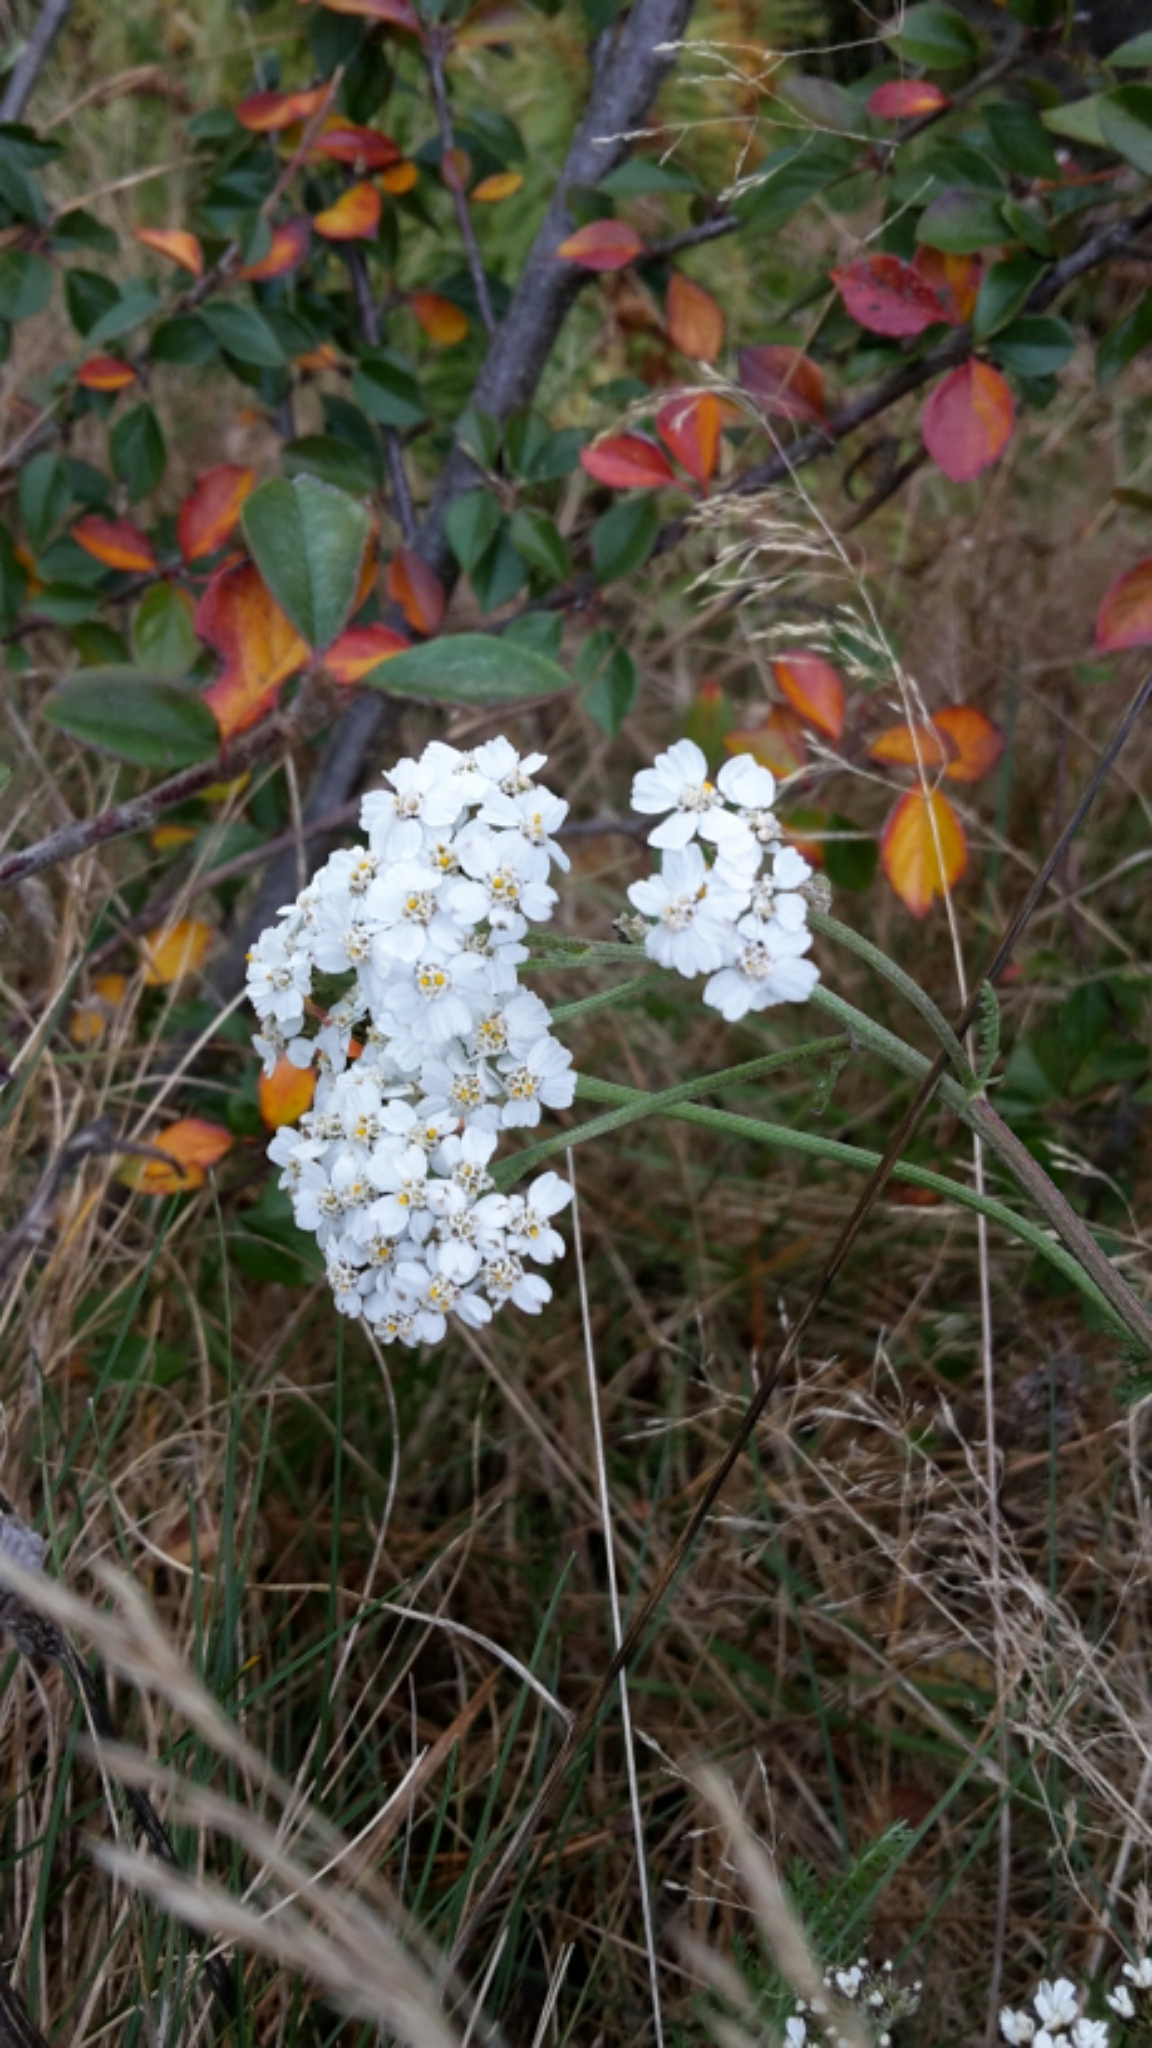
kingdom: Plantae
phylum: Tracheophyta
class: Magnoliopsida
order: Asterales
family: Asteraceae
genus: Achillea
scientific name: Achillea millefolium
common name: Yarrow
